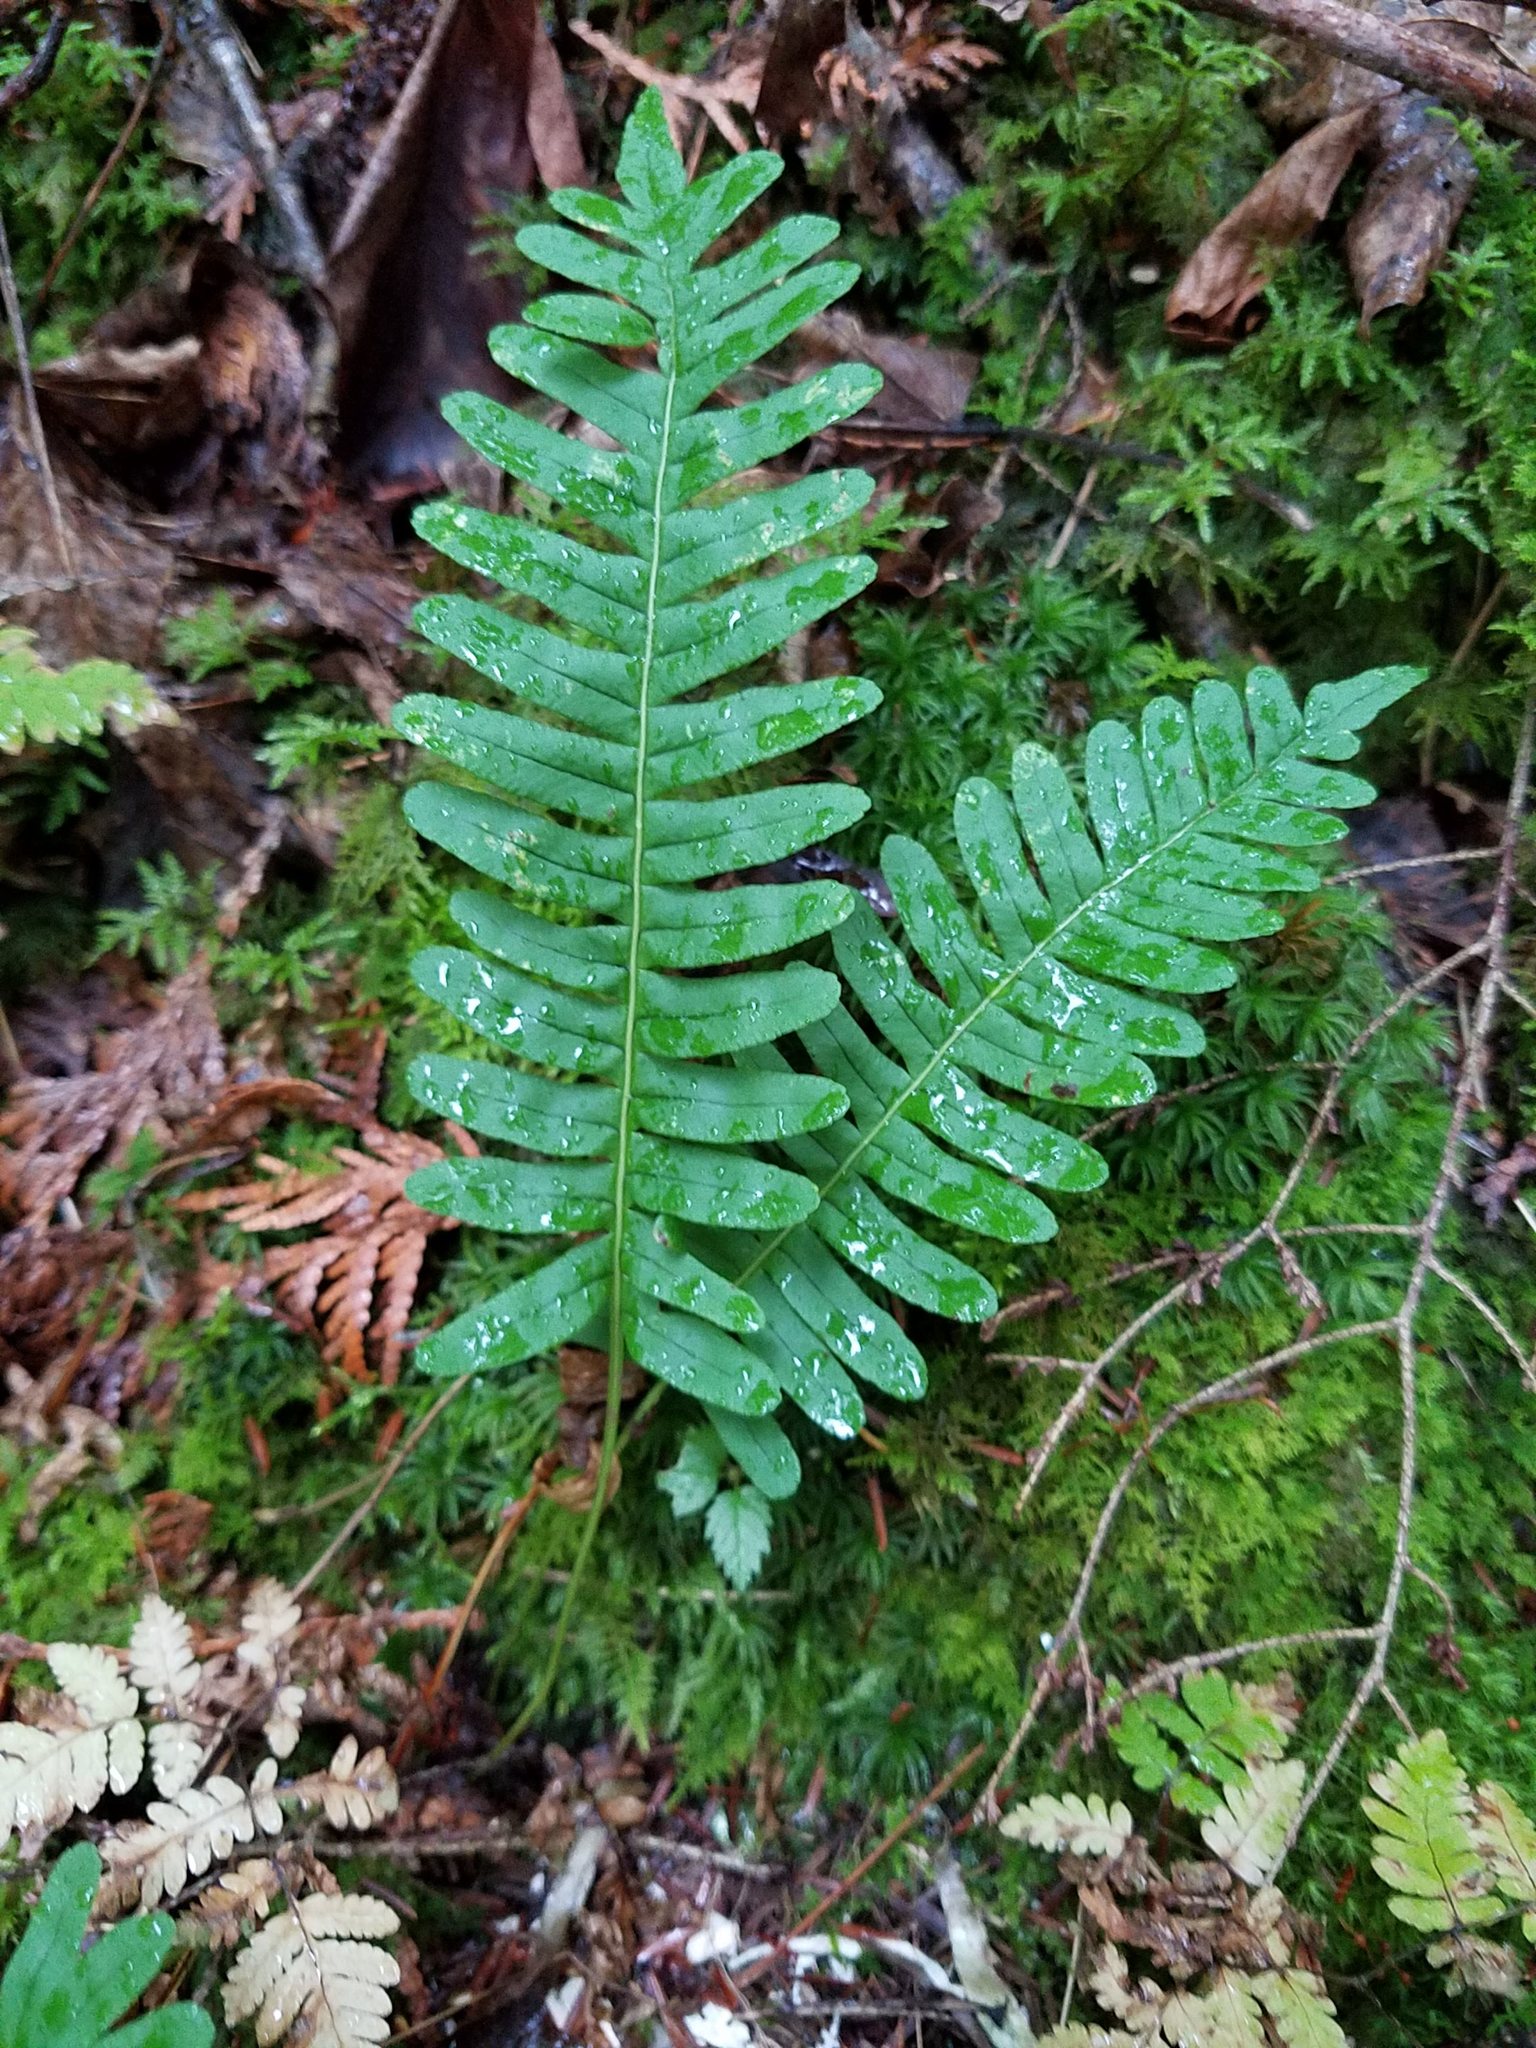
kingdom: Plantae
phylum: Tracheophyta
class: Polypodiopsida
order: Polypodiales
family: Polypodiaceae
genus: Polypodium
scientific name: Polypodium virginianum
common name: American wall fern
